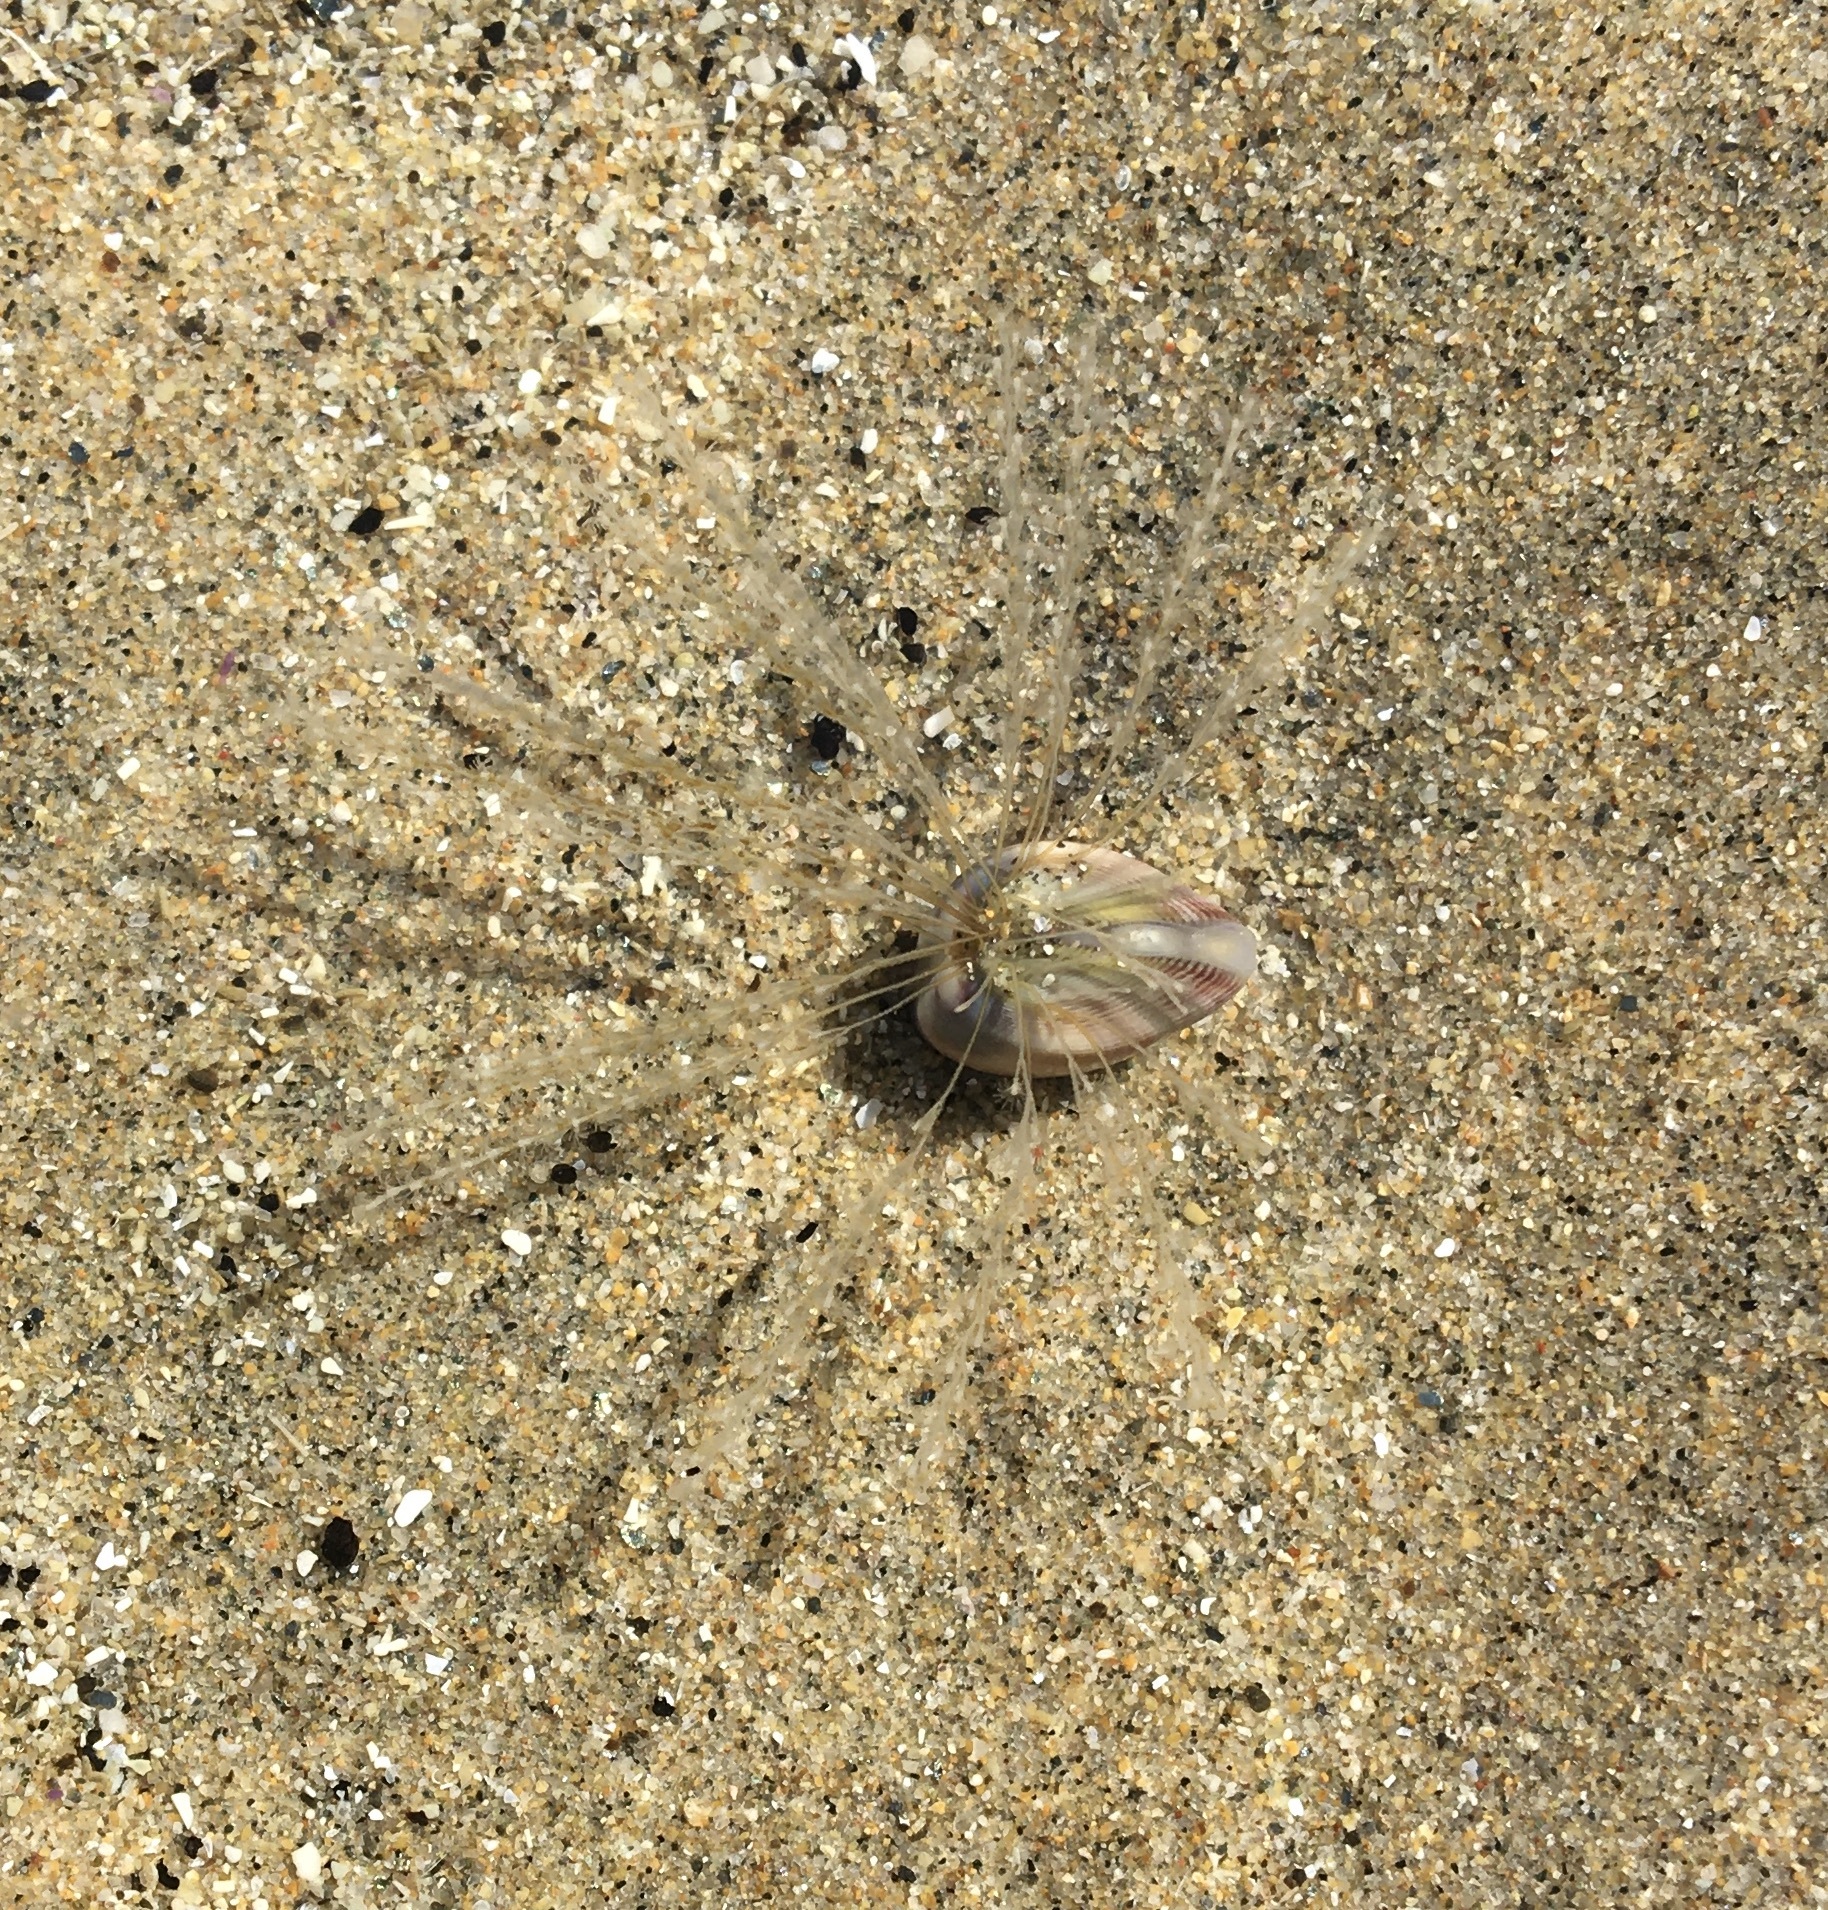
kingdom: Animalia
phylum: Cnidaria
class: Hydrozoa
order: Leptothecata
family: Lovenellidae
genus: Eucheilota
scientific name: Eucheilota bakeri
